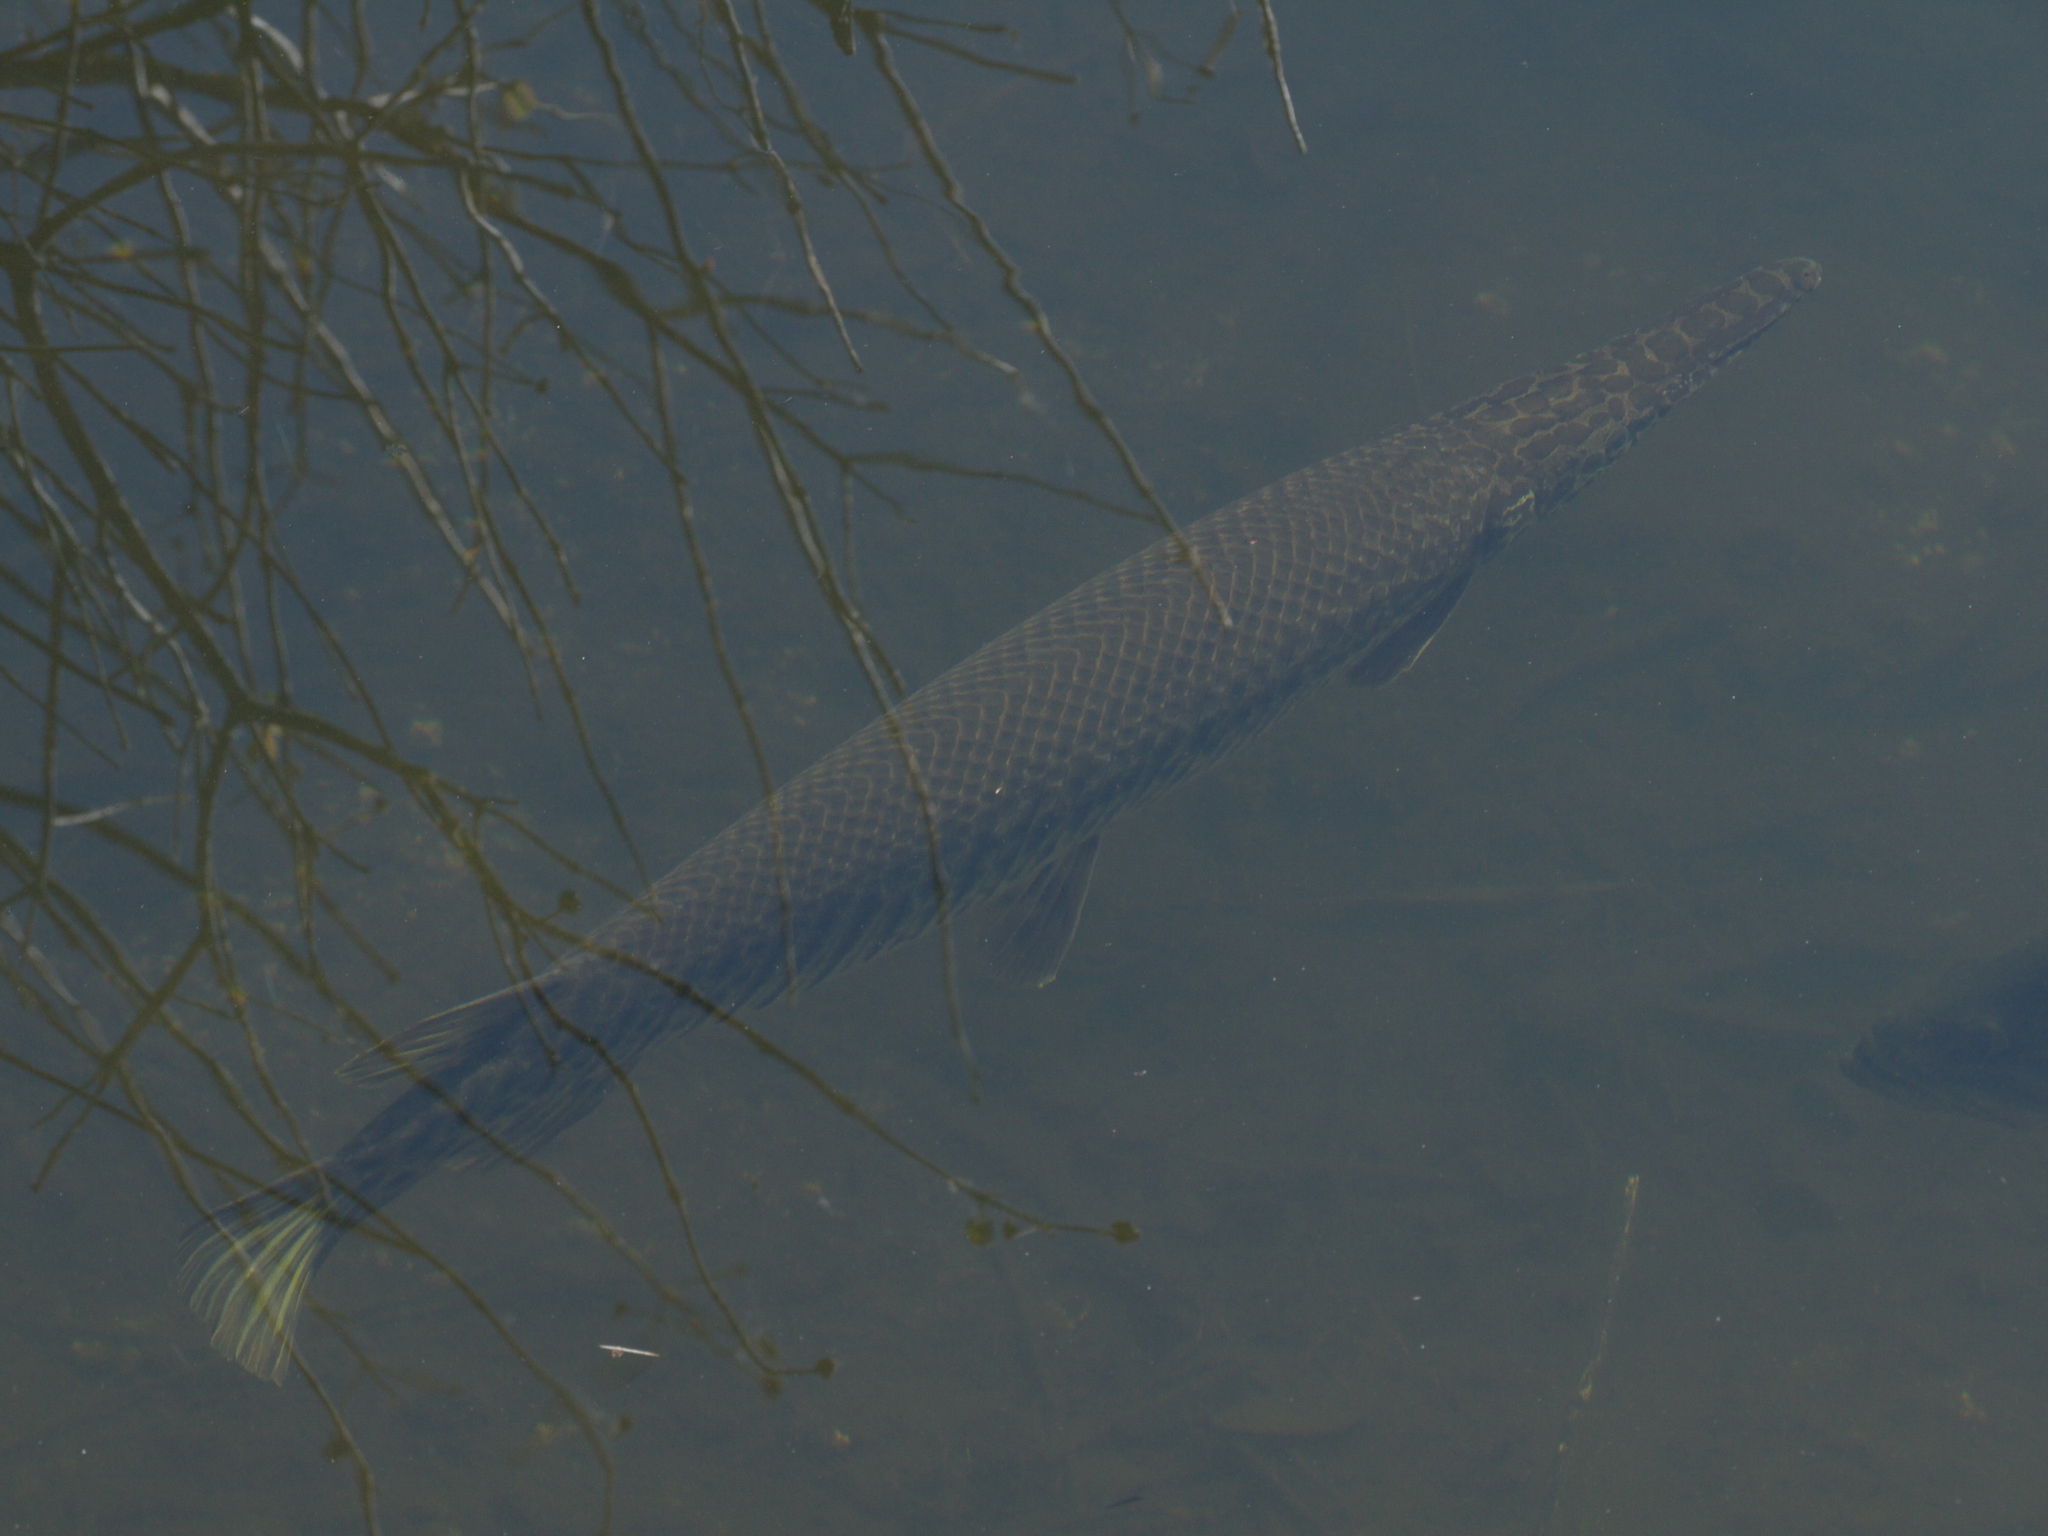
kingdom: Animalia
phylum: Chordata
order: Lepisosteiformes
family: Lepisosteidae
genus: Lepisosteus
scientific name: Lepisosteus platyrhincus
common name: Florida gar
